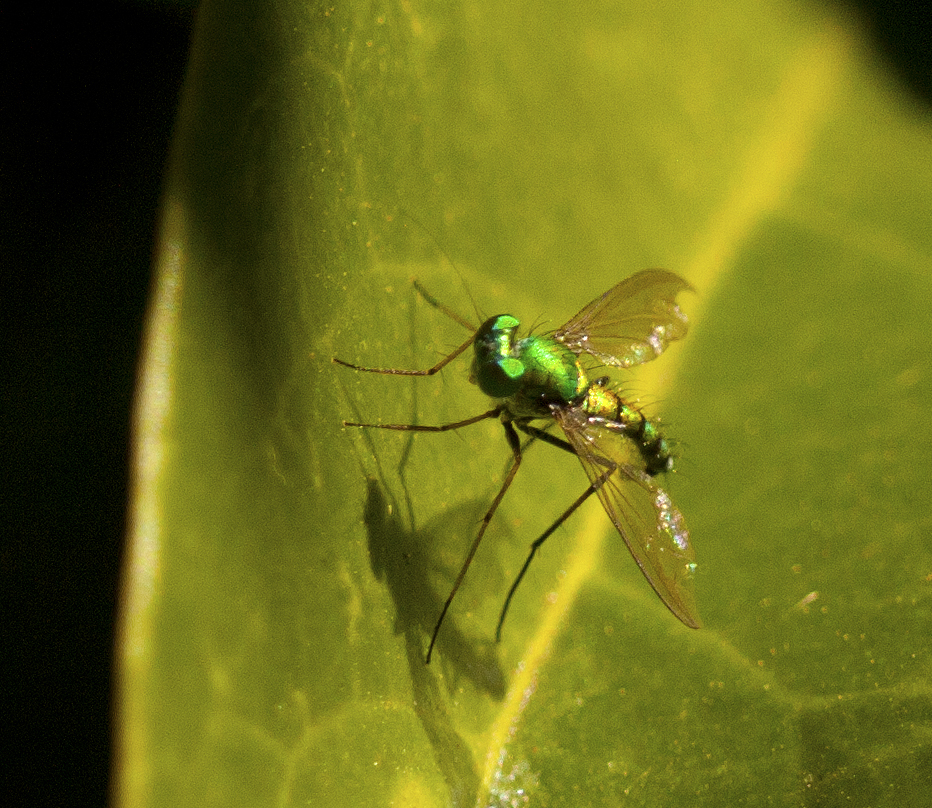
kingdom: Animalia
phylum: Arthropoda
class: Insecta
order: Diptera
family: Dolichopodidae
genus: Chrysosoma
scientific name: Chrysosoma pseudocallosum
